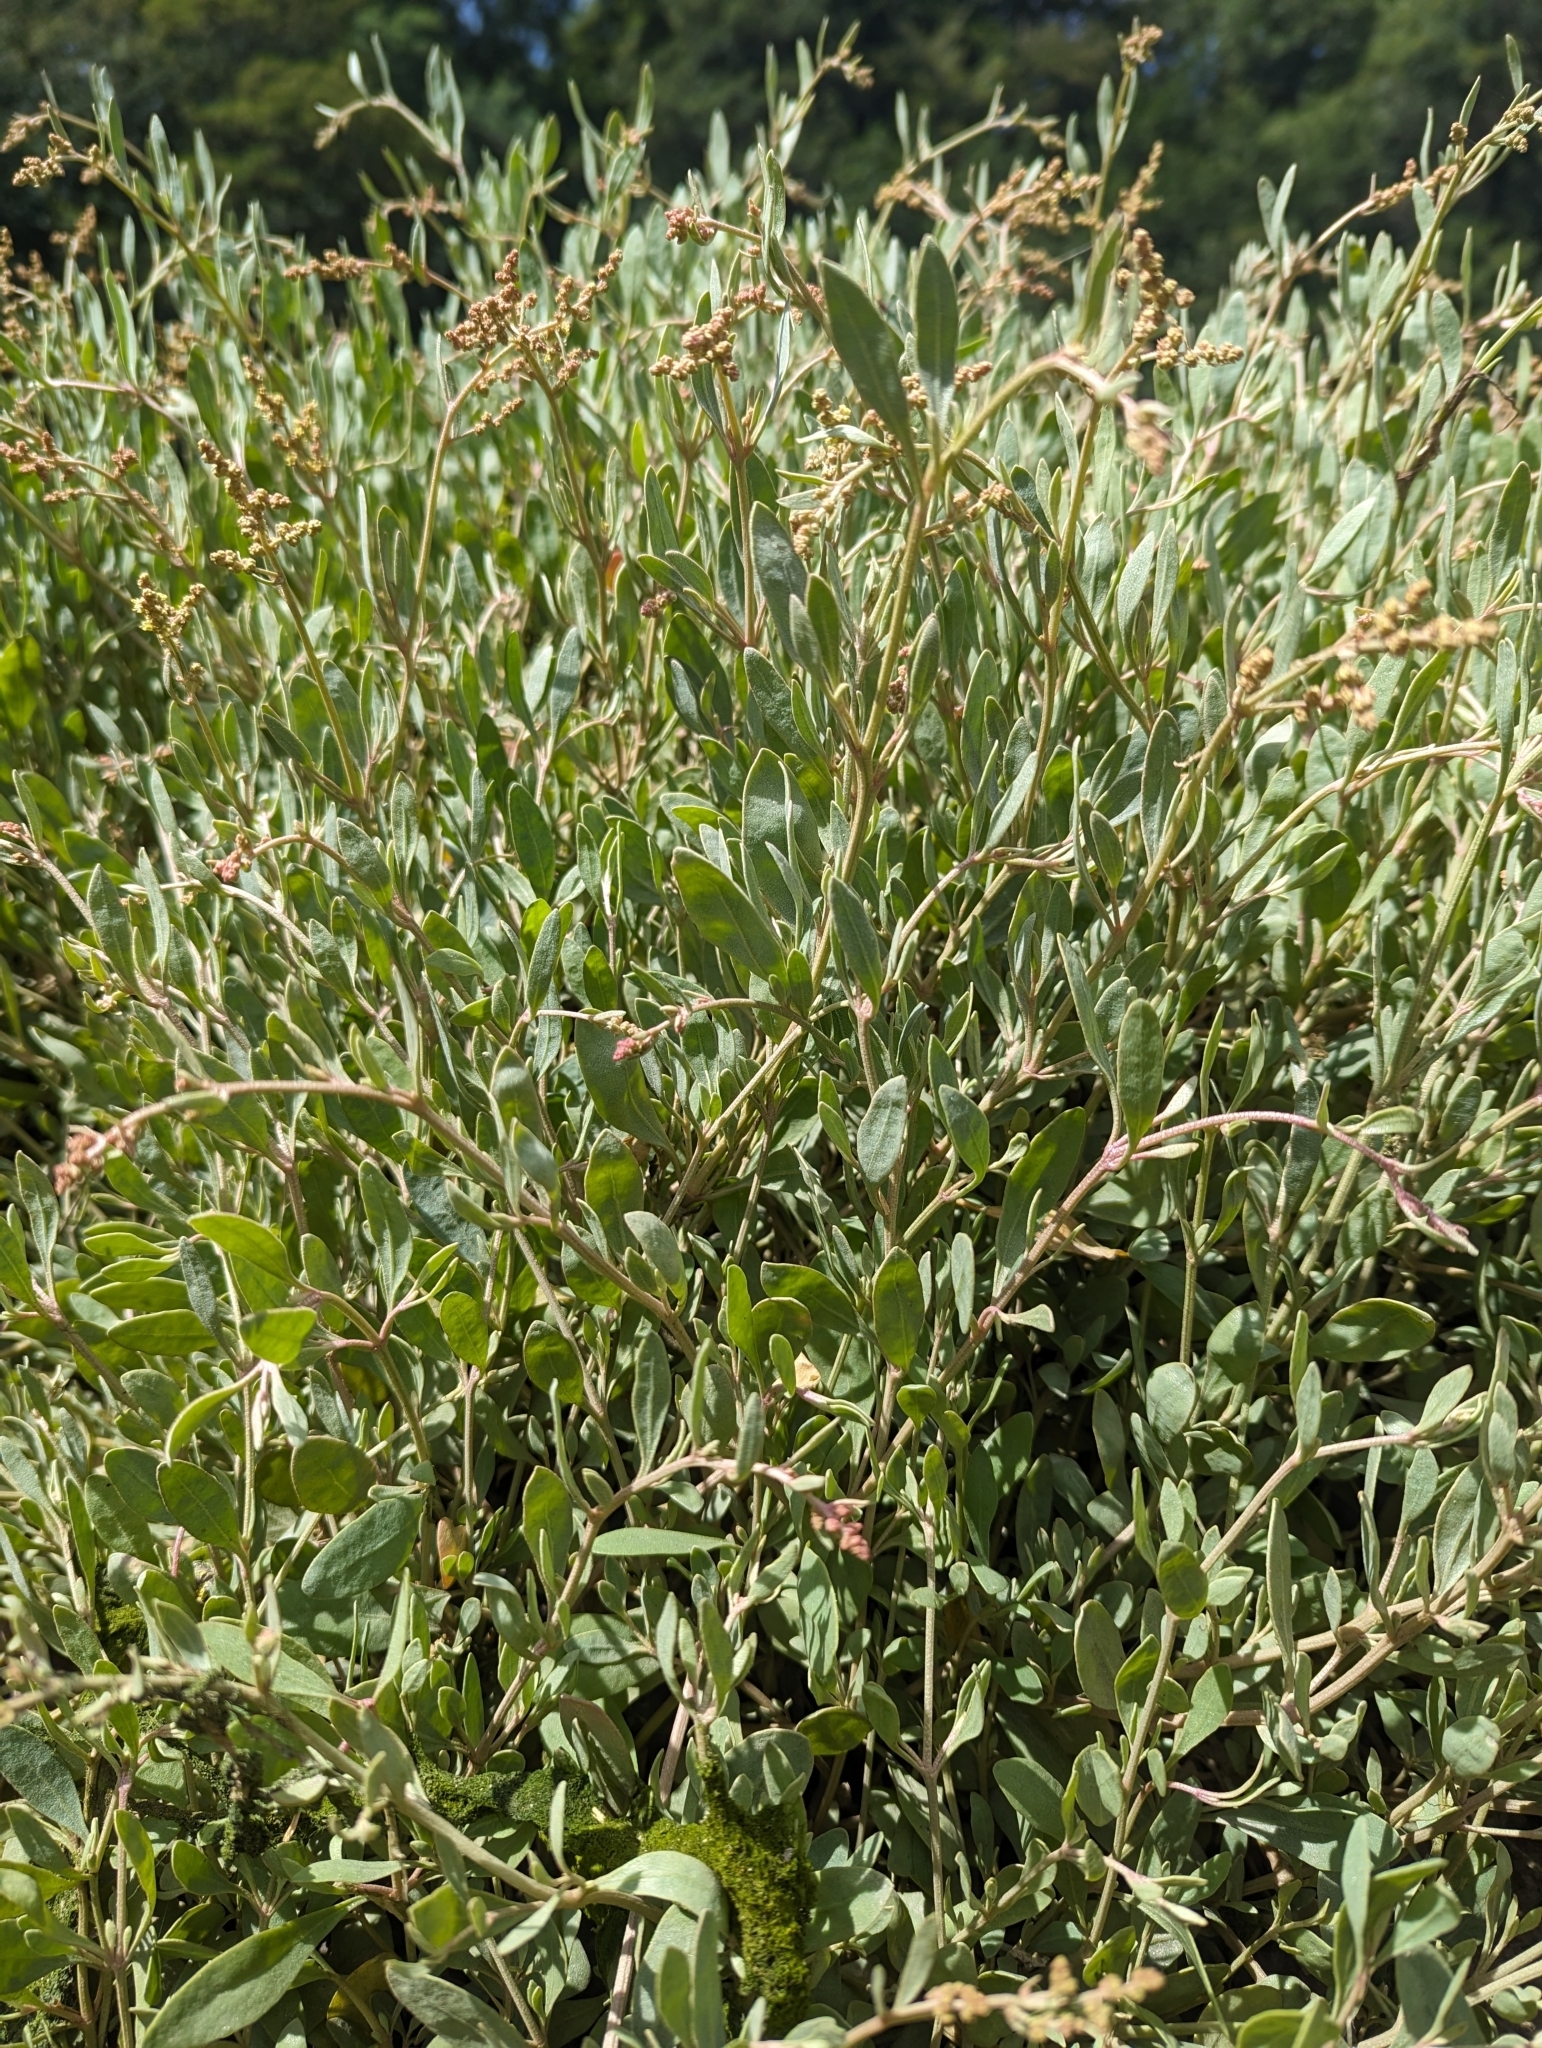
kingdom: Plantae
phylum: Tracheophyta
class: Magnoliopsida
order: Caryophyllales
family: Amaranthaceae
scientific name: Amaranthaceae
